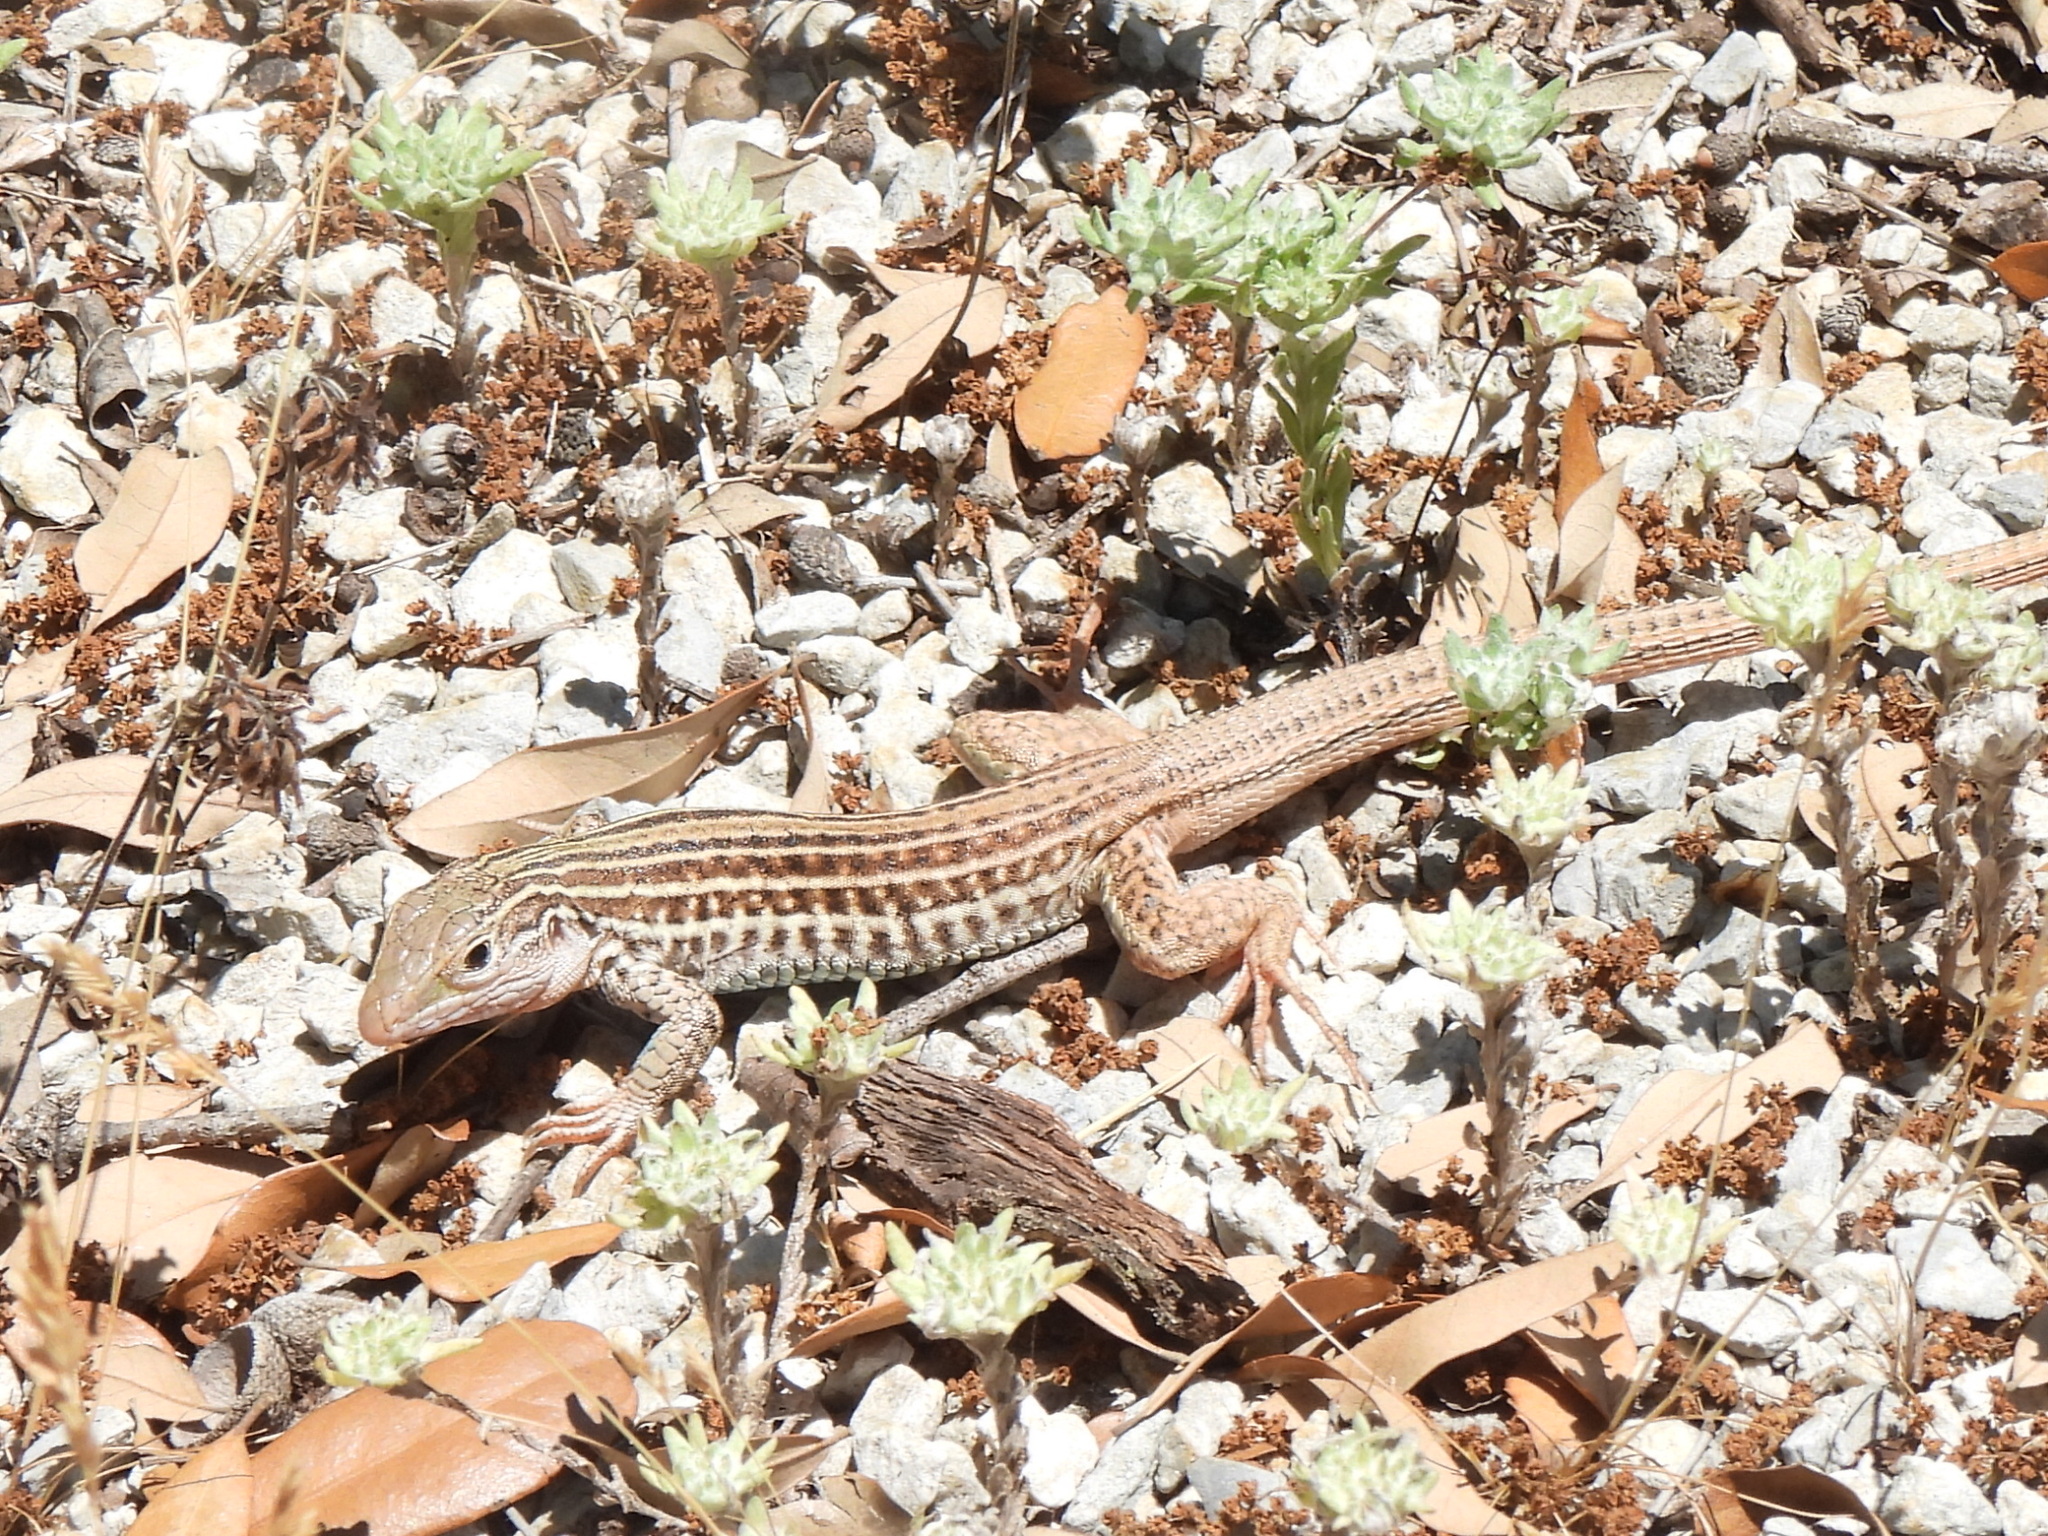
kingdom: Animalia
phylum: Chordata
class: Squamata
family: Teiidae
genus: Aspidoscelis
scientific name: Aspidoscelis gularis
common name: Eastern spotted whiptail
